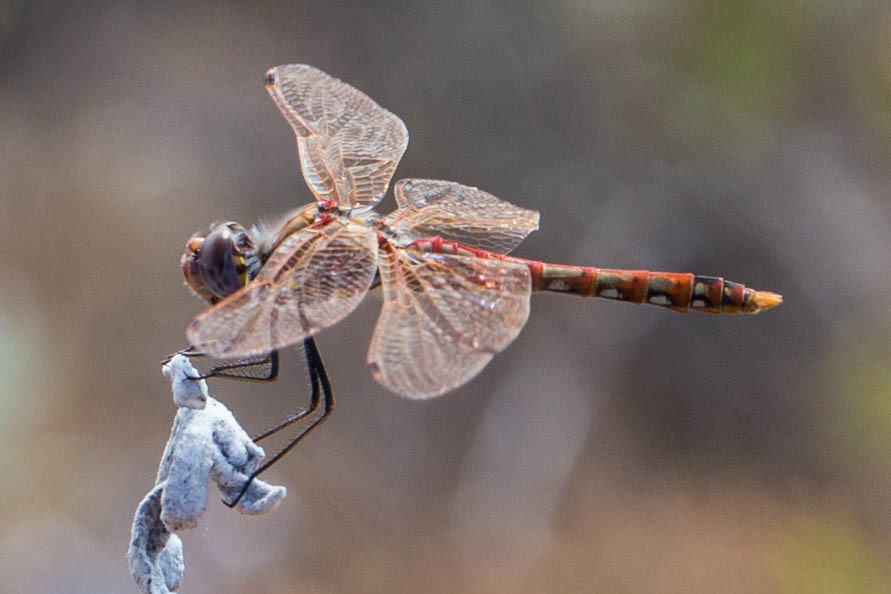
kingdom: Animalia
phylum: Arthropoda
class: Insecta
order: Odonata
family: Libellulidae
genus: Sympetrum
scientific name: Sympetrum corruptum
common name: Variegated meadowhawk
